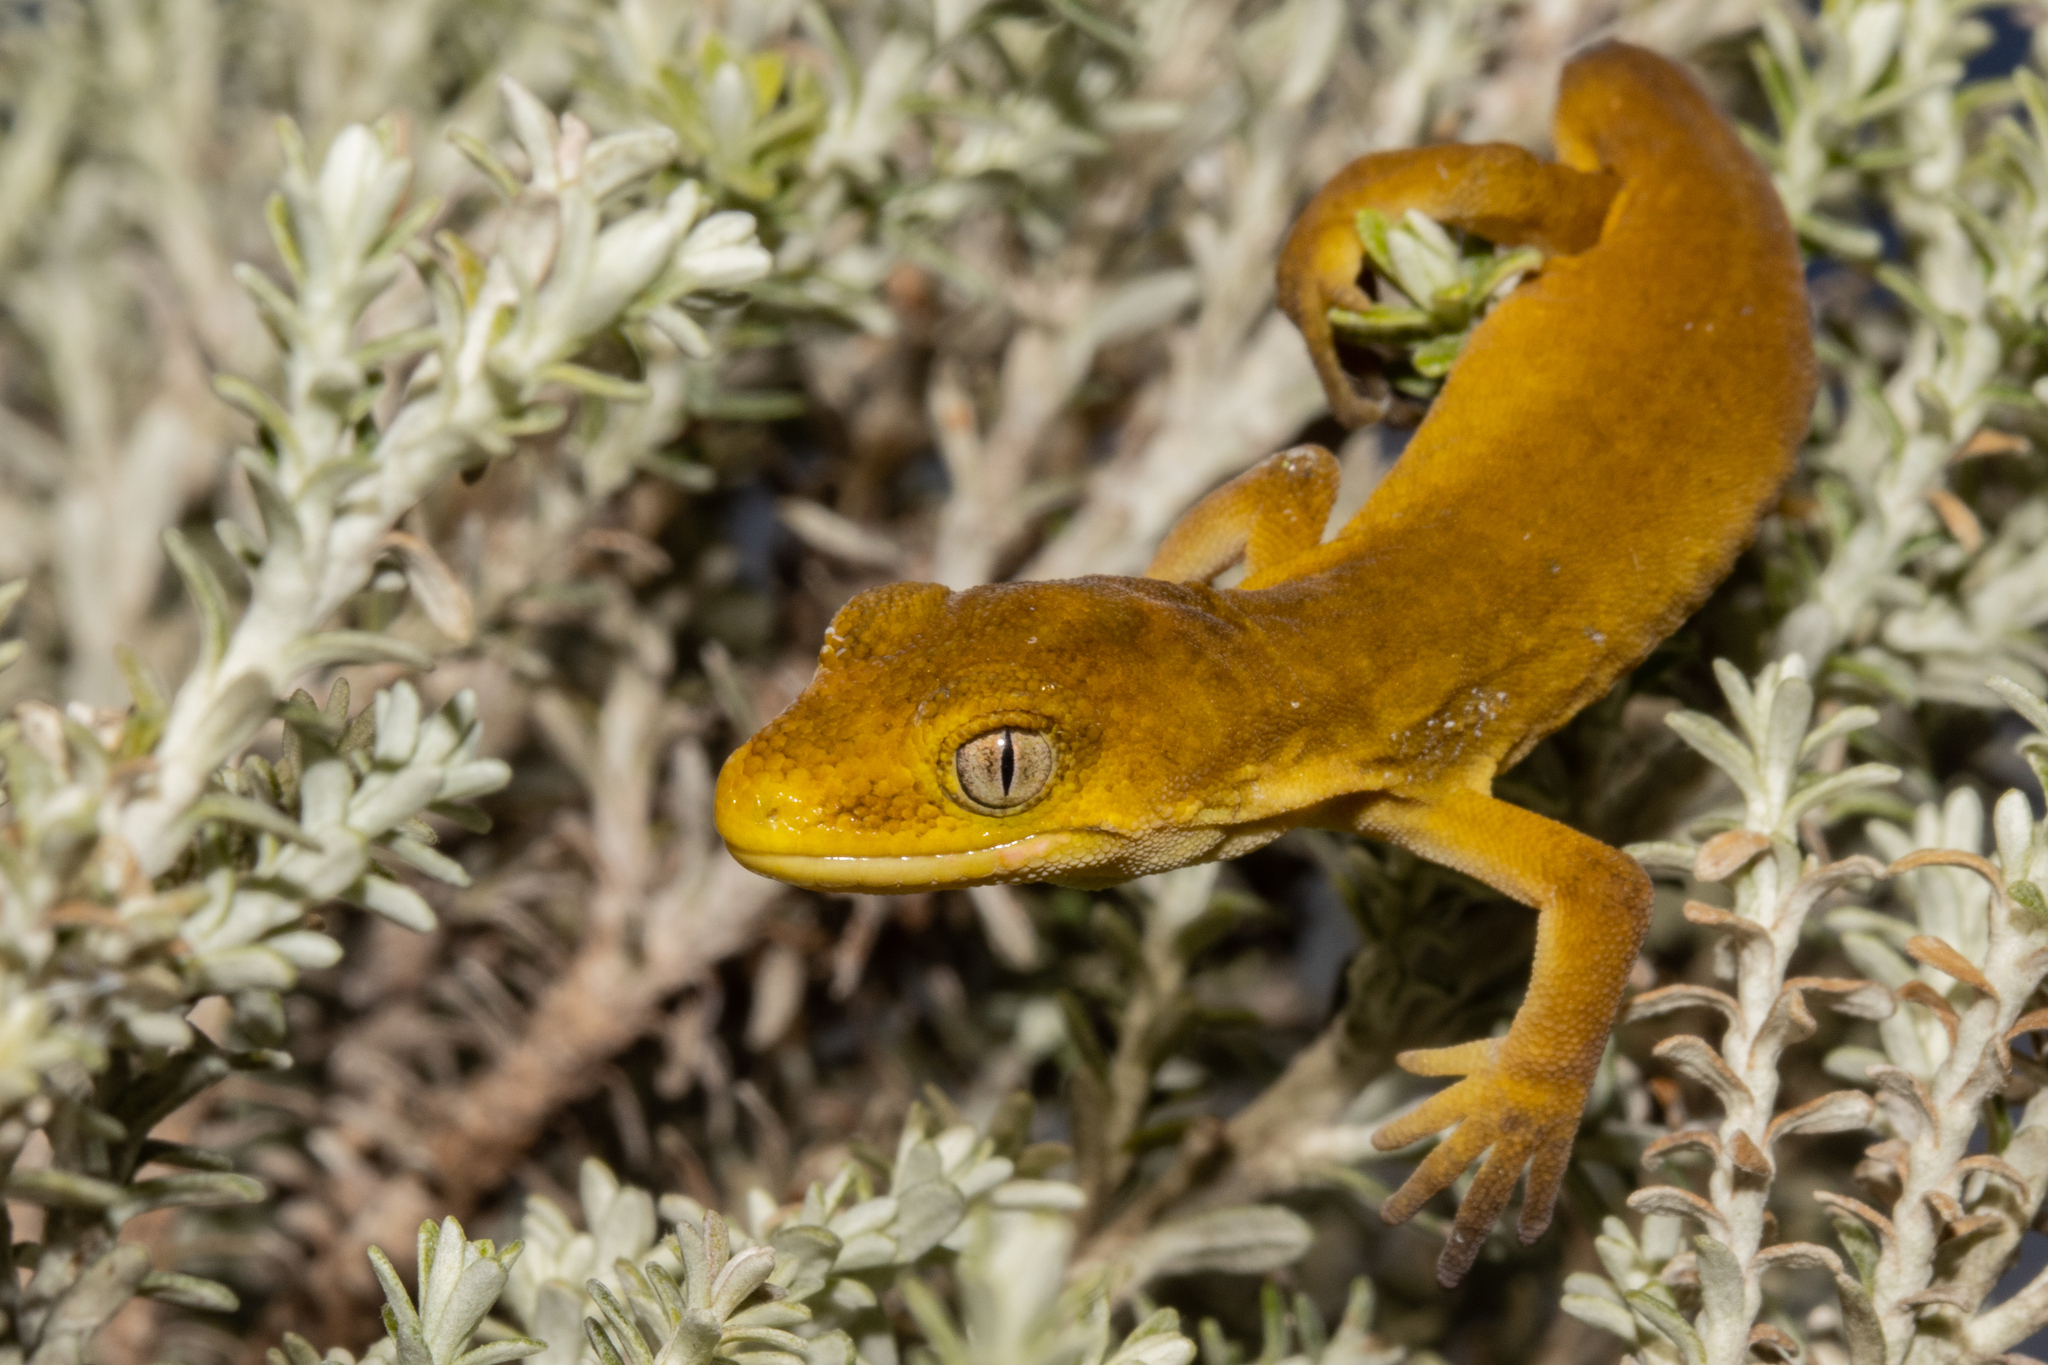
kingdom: Animalia
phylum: Chordata
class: Squamata
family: Diplodactylidae
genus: Naultinus
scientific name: Naultinus manukanus
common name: Marlborough green gecko
